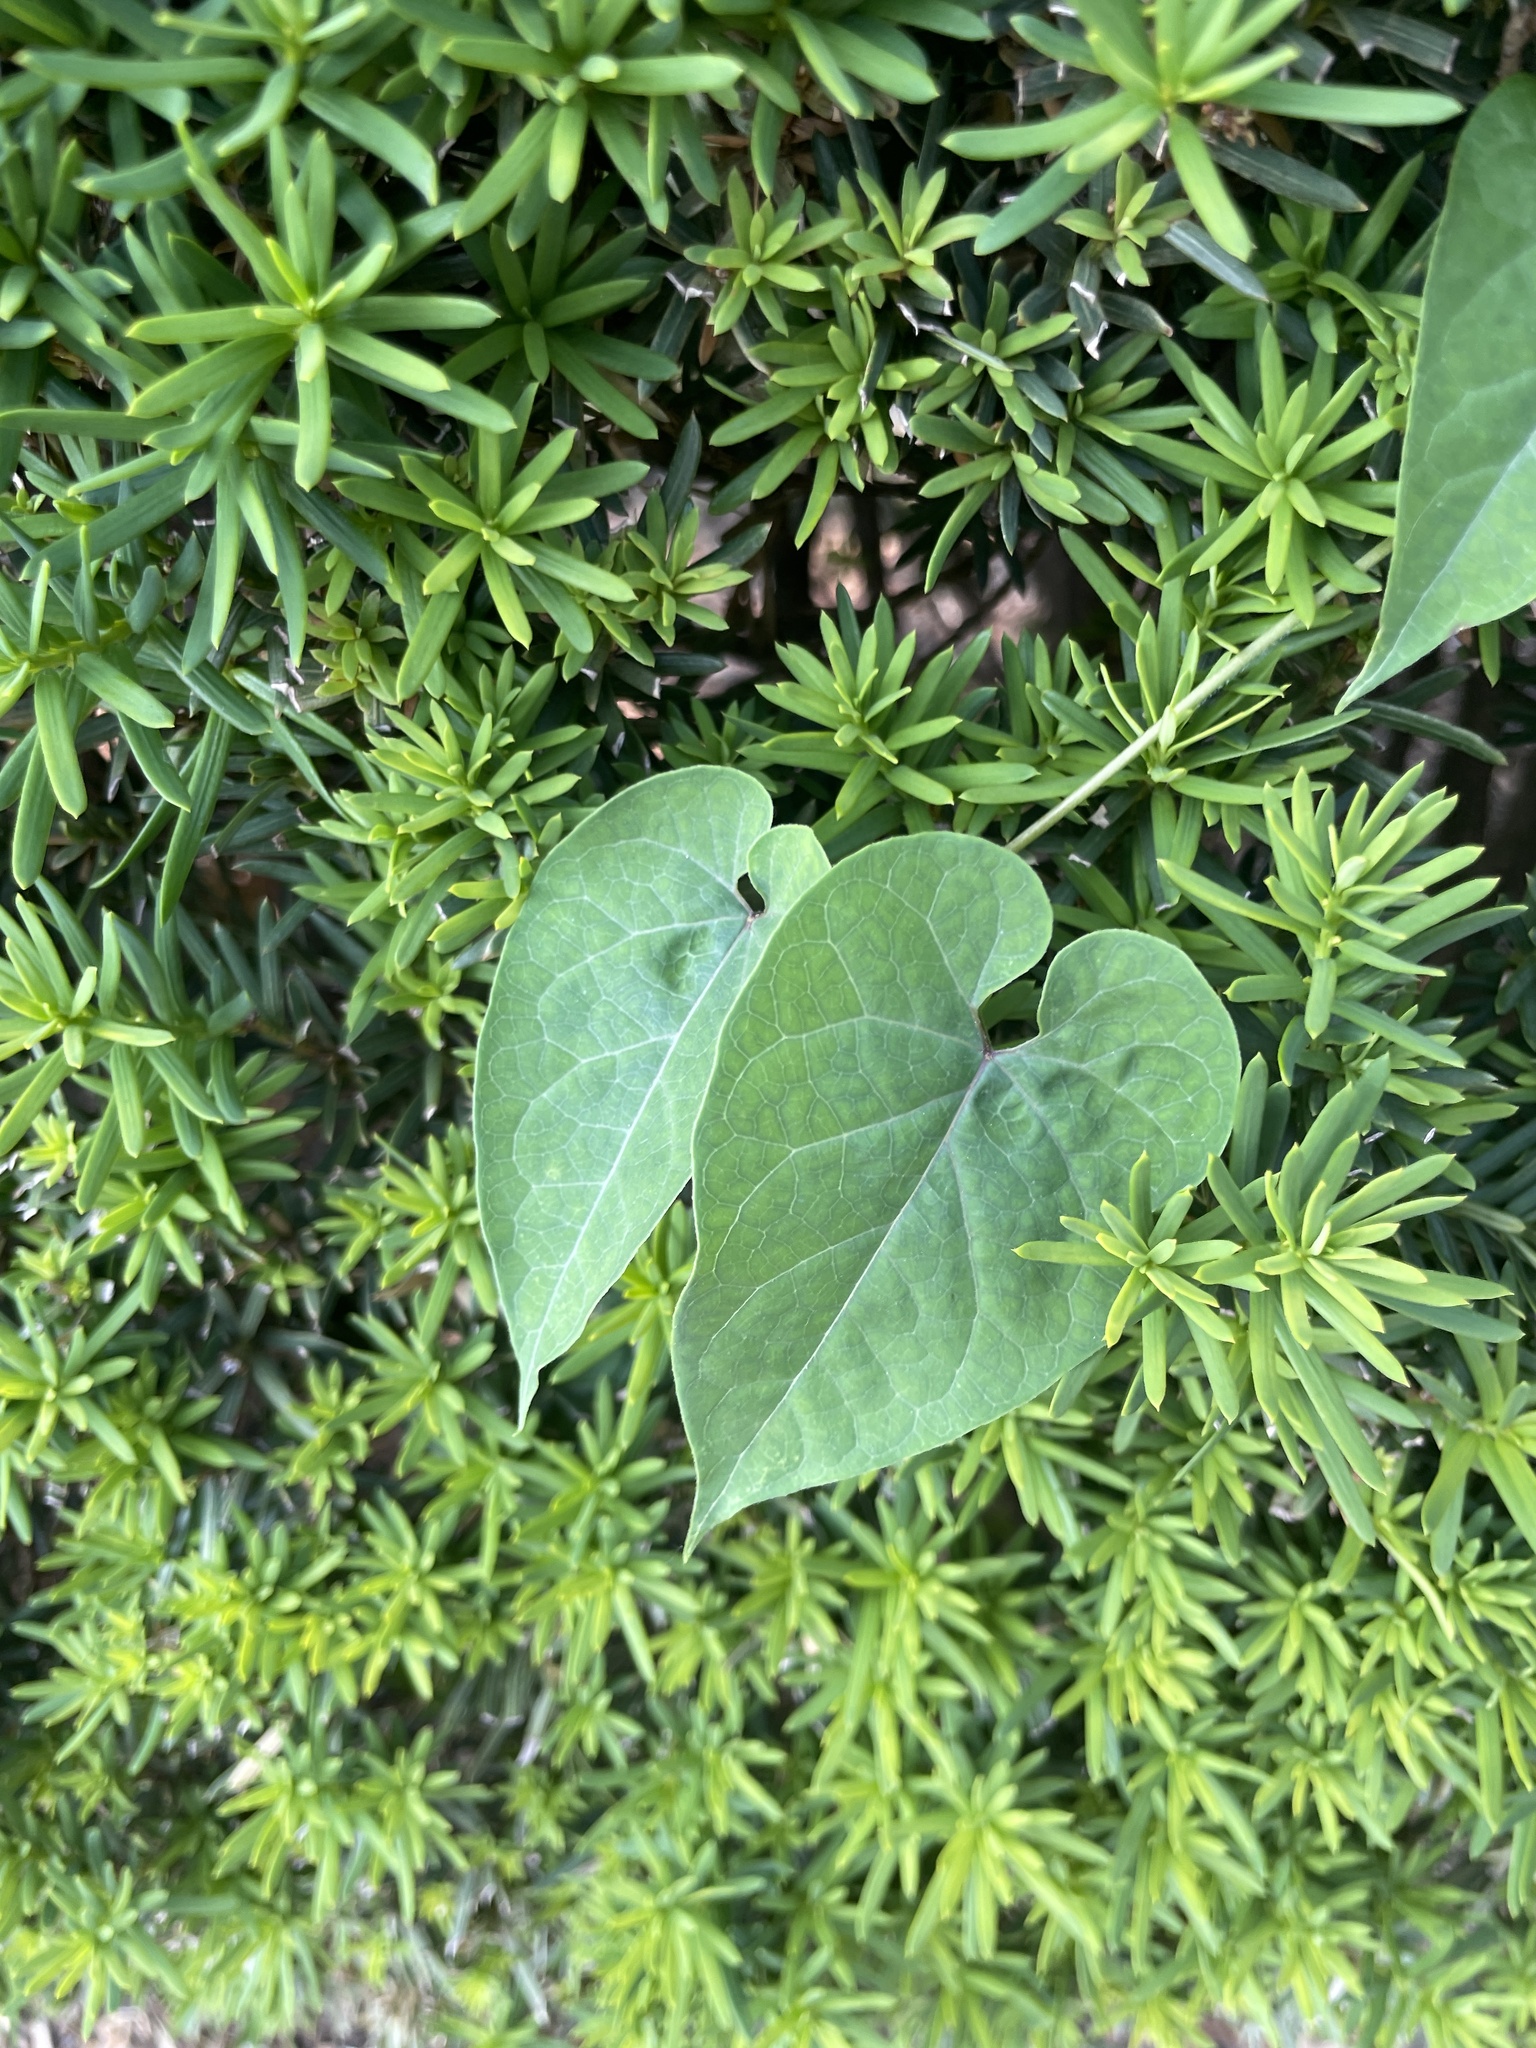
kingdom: Plantae
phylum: Tracheophyta
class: Magnoliopsida
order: Gentianales
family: Apocynaceae
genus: Cynanchum
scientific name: Cynanchum laeve
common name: Sandvine
